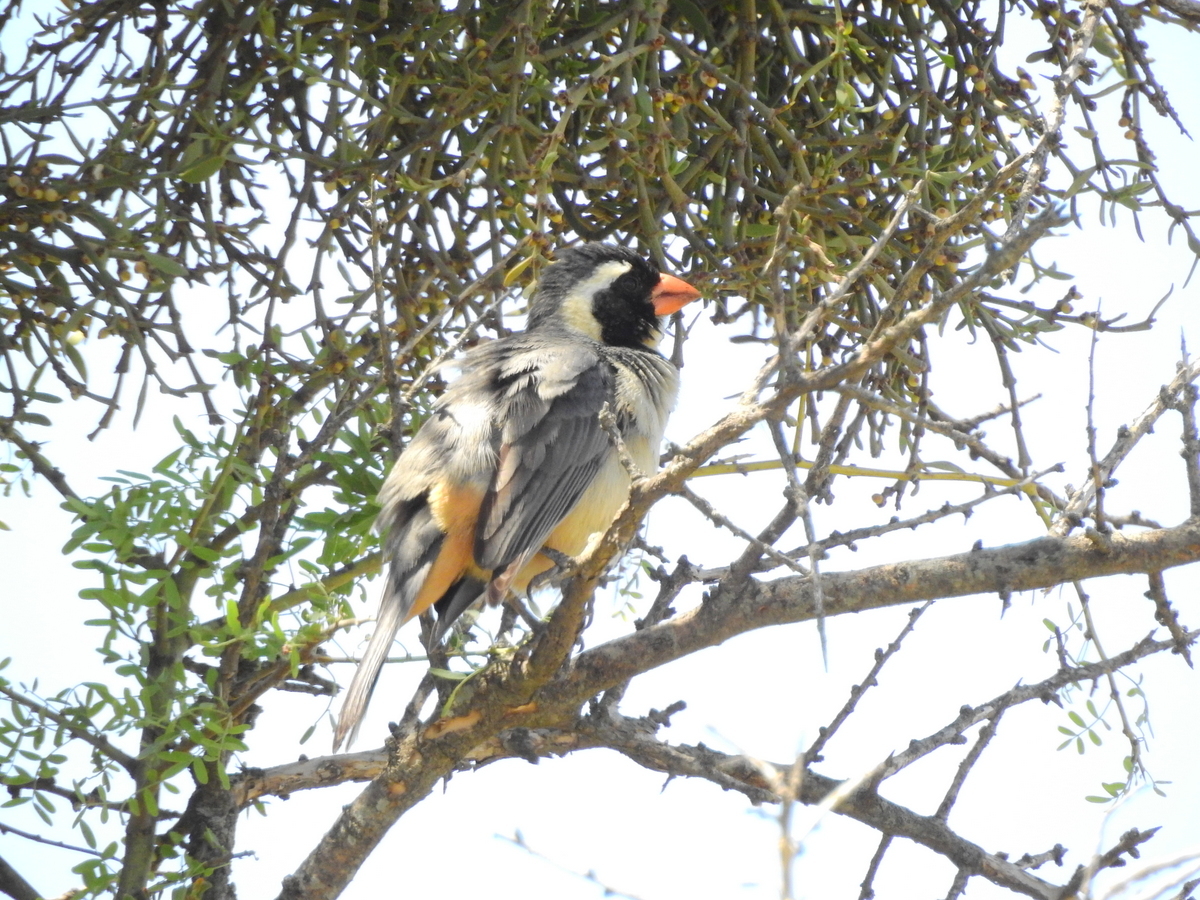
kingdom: Animalia
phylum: Chordata
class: Aves
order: Passeriformes
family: Thraupidae
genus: Saltator
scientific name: Saltator aurantiirostris
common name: Golden-billed saltator
